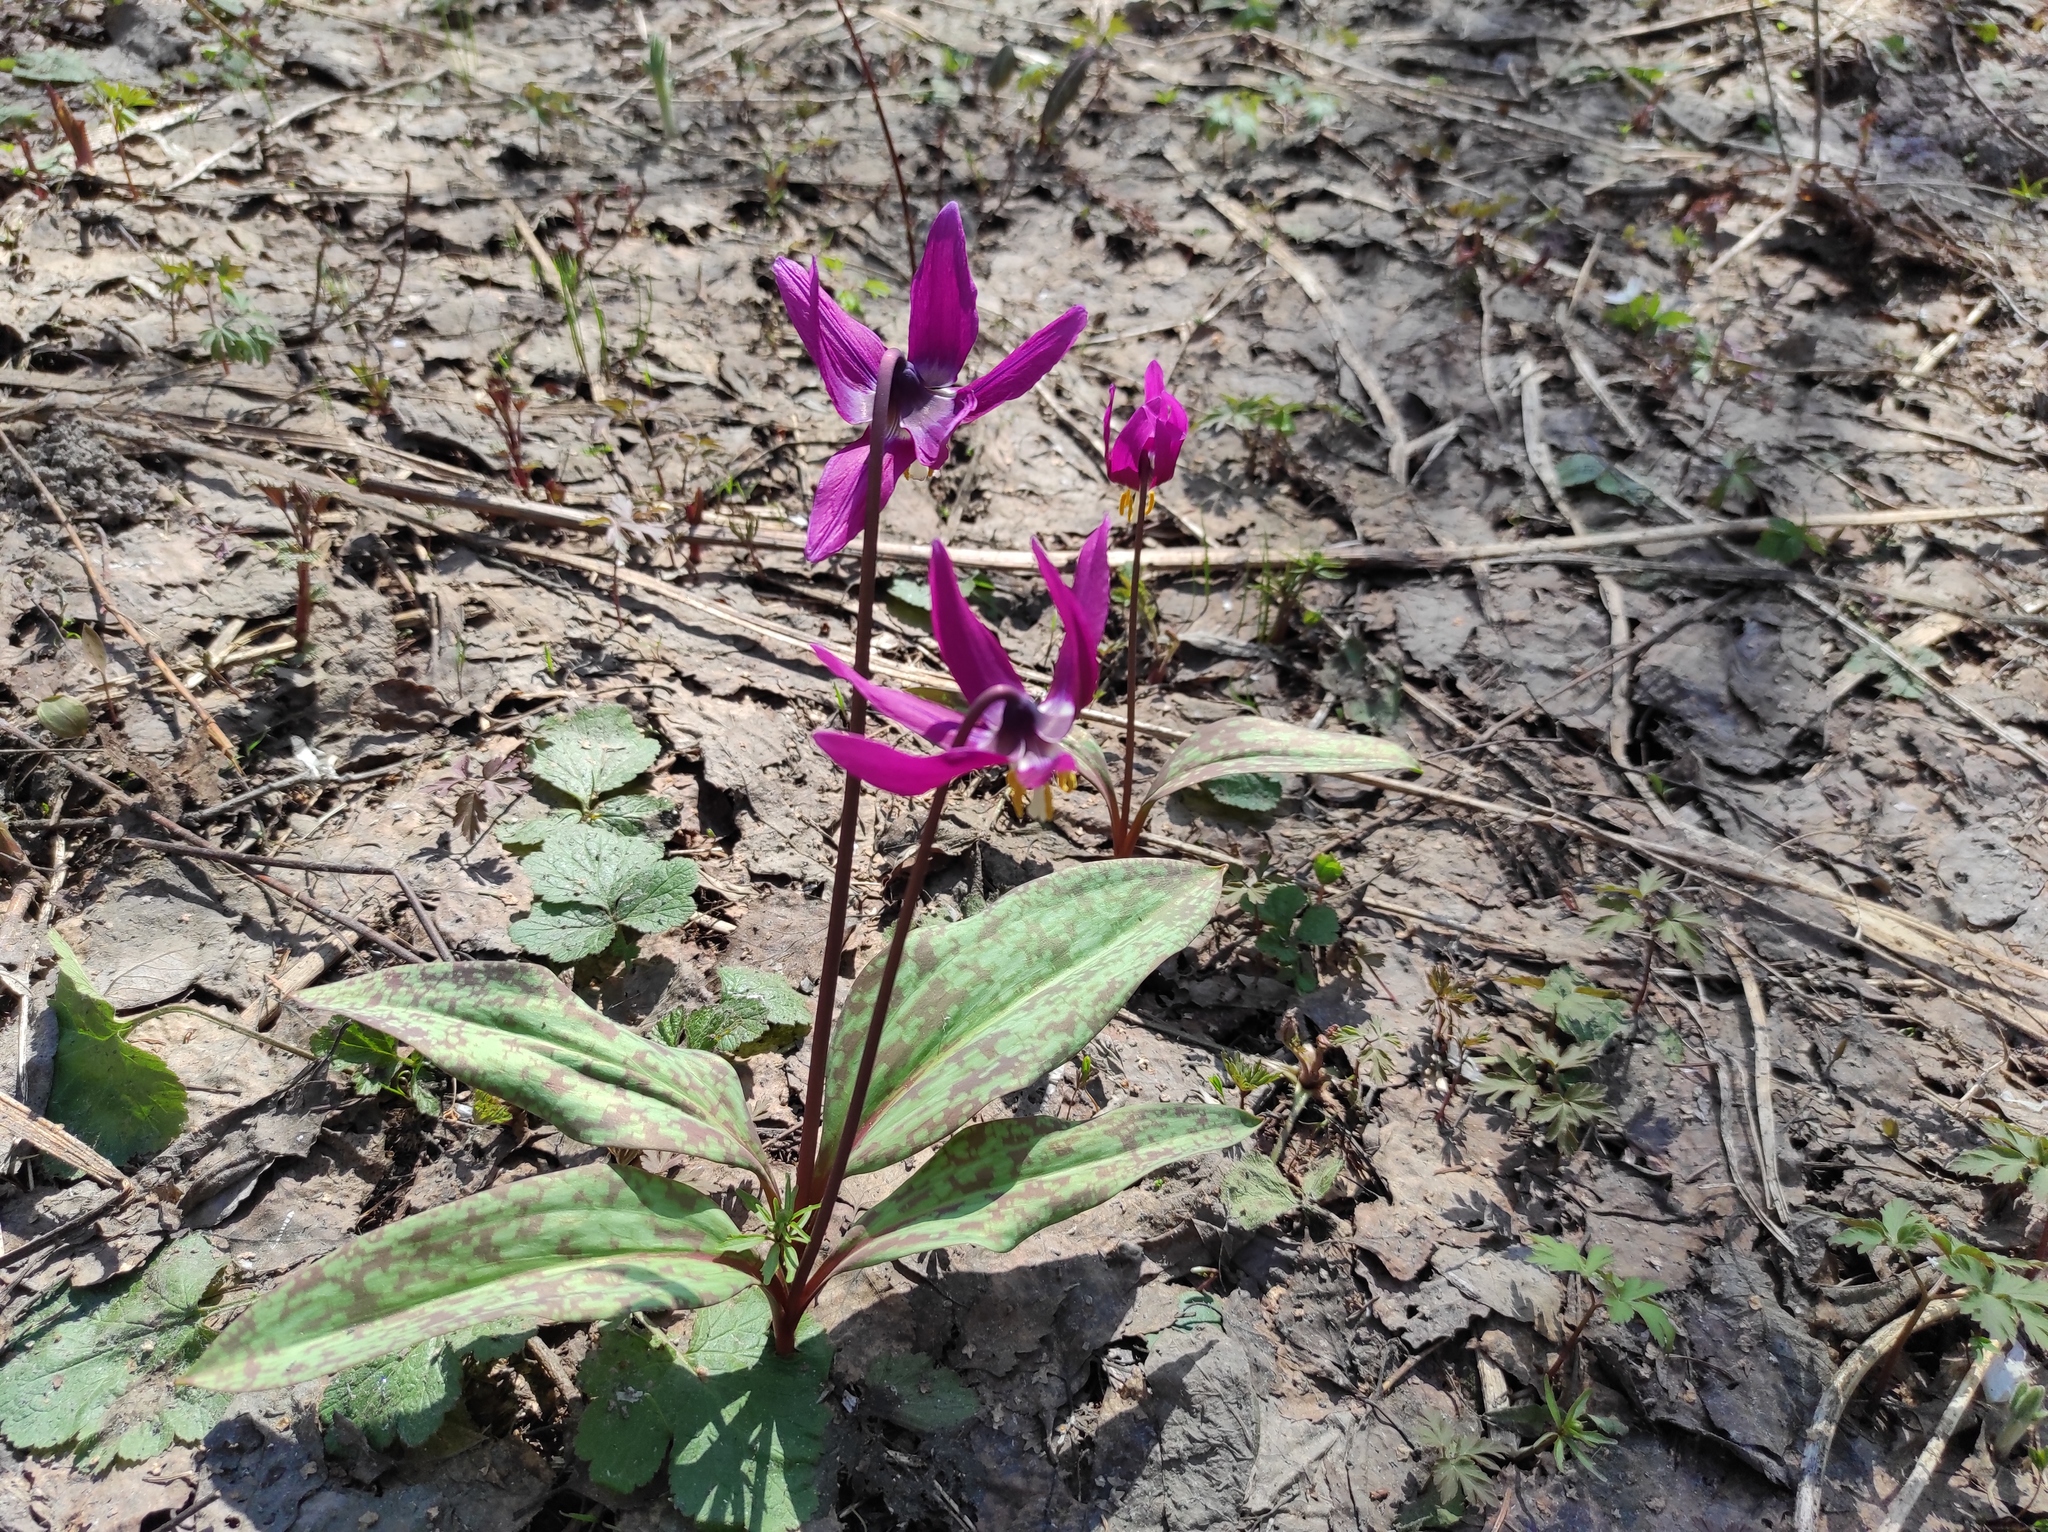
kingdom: Plantae
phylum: Tracheophyta
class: Liliopsida
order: Liliales
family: Liliaceae
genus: Erythronium
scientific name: Erythronium sibiricum
